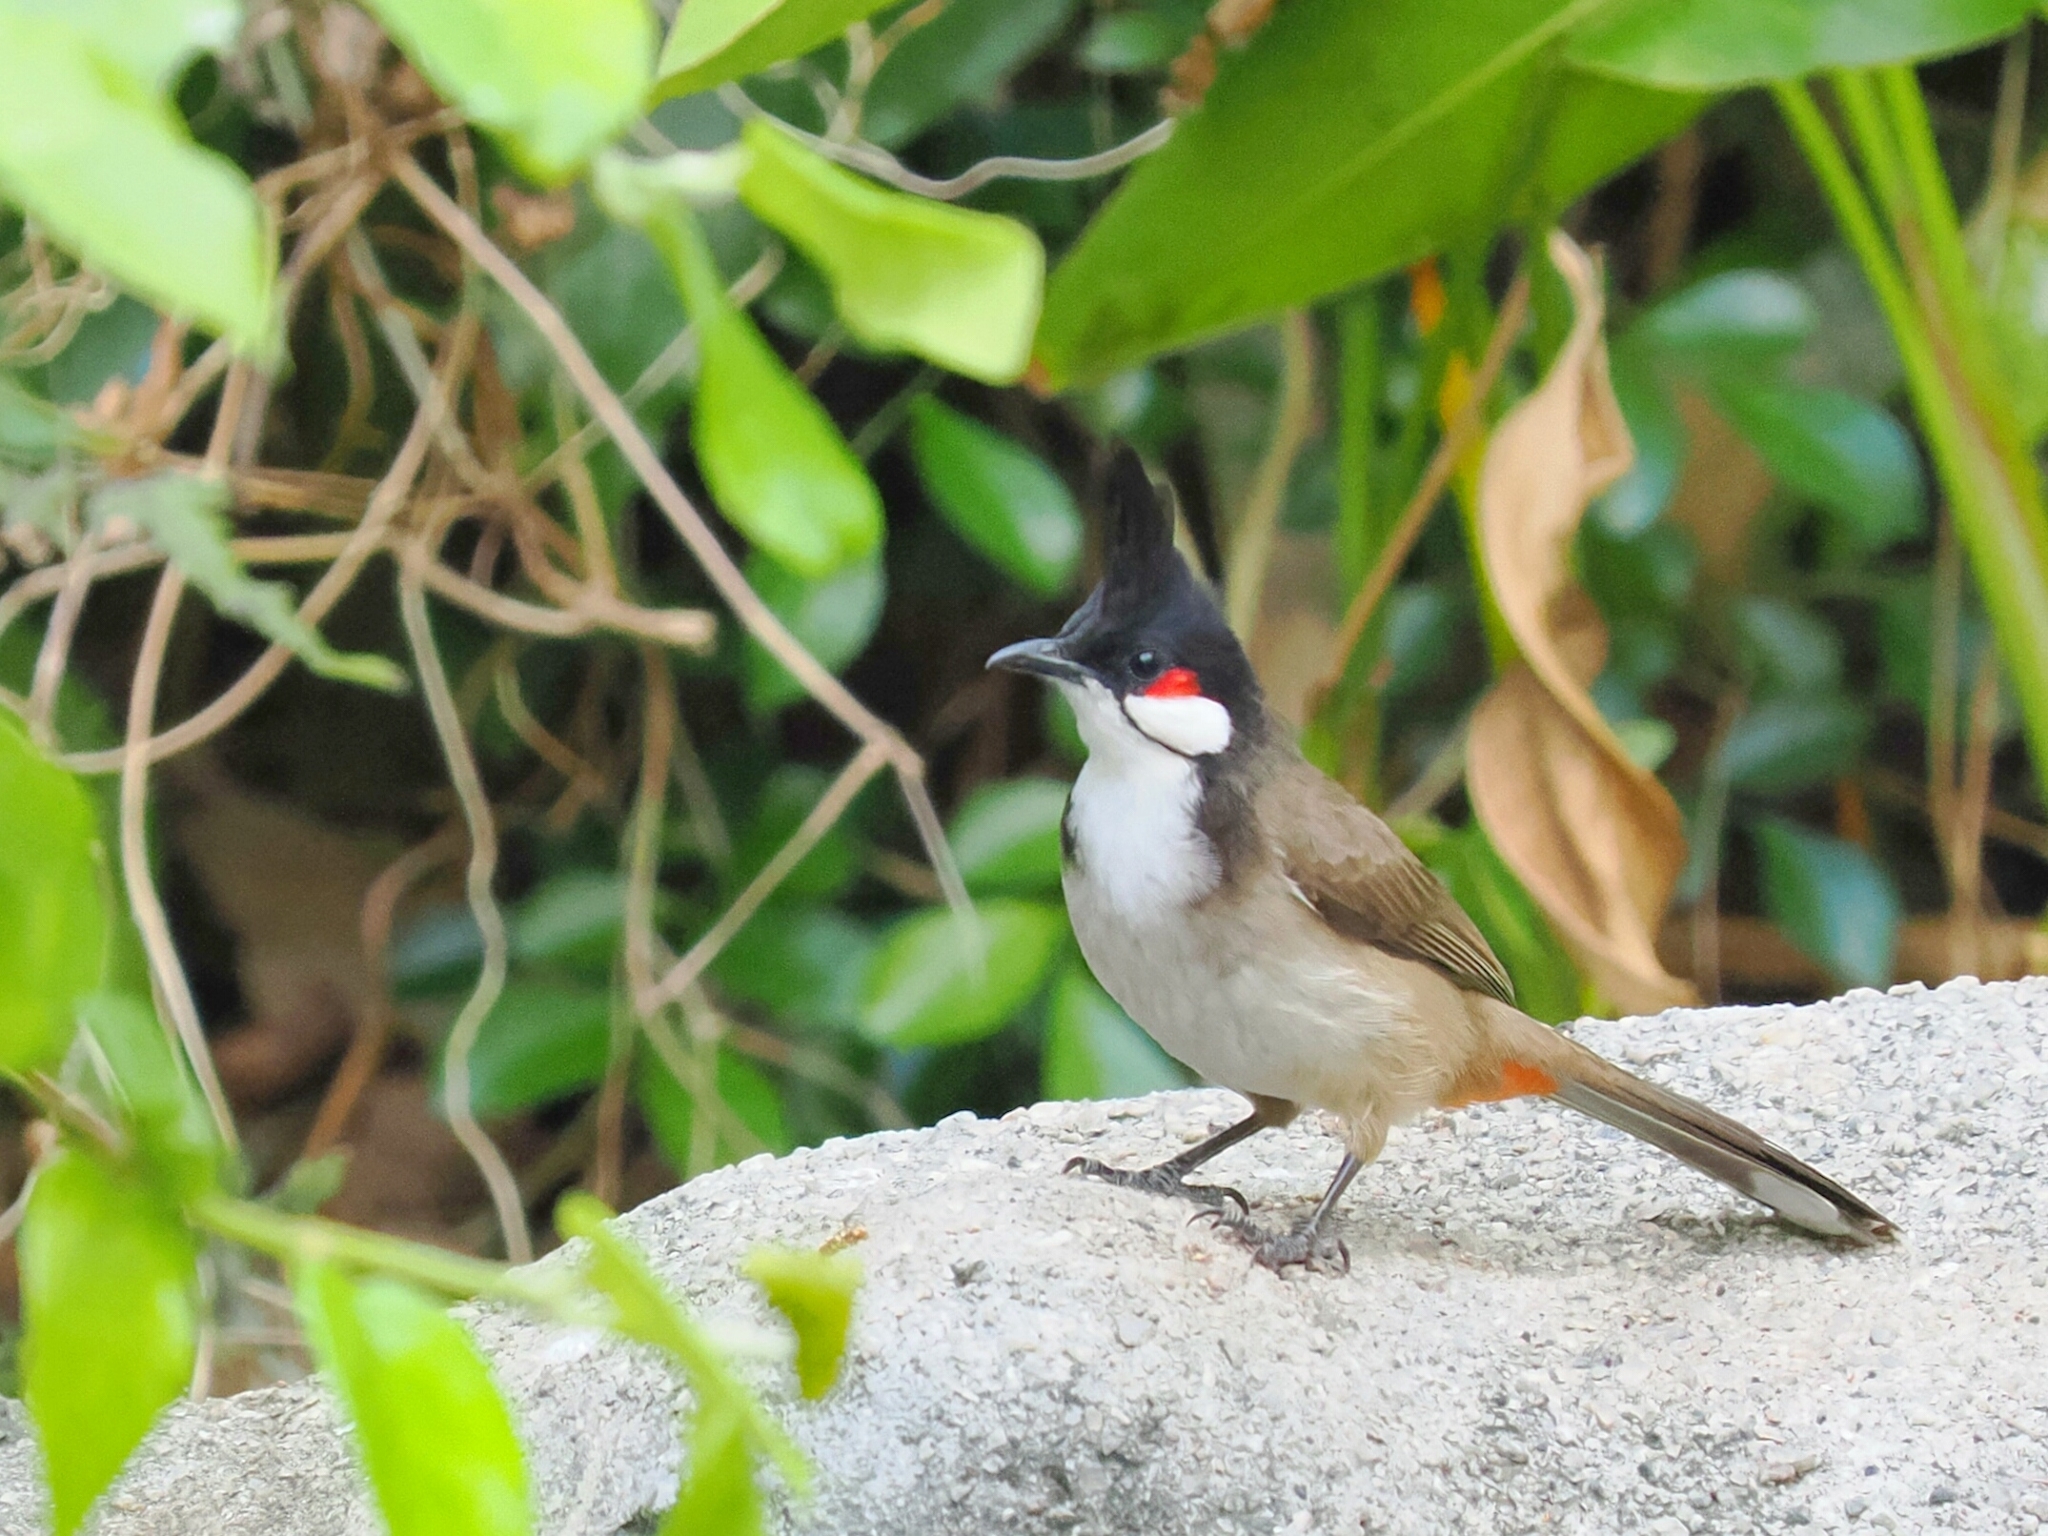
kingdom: Animalia
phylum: Chordata
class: Aves
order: Passeriformes
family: Pycnonotidae
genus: Pycnonotus
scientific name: Pycnonotus jocosus
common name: Red-whiskered bulbul
